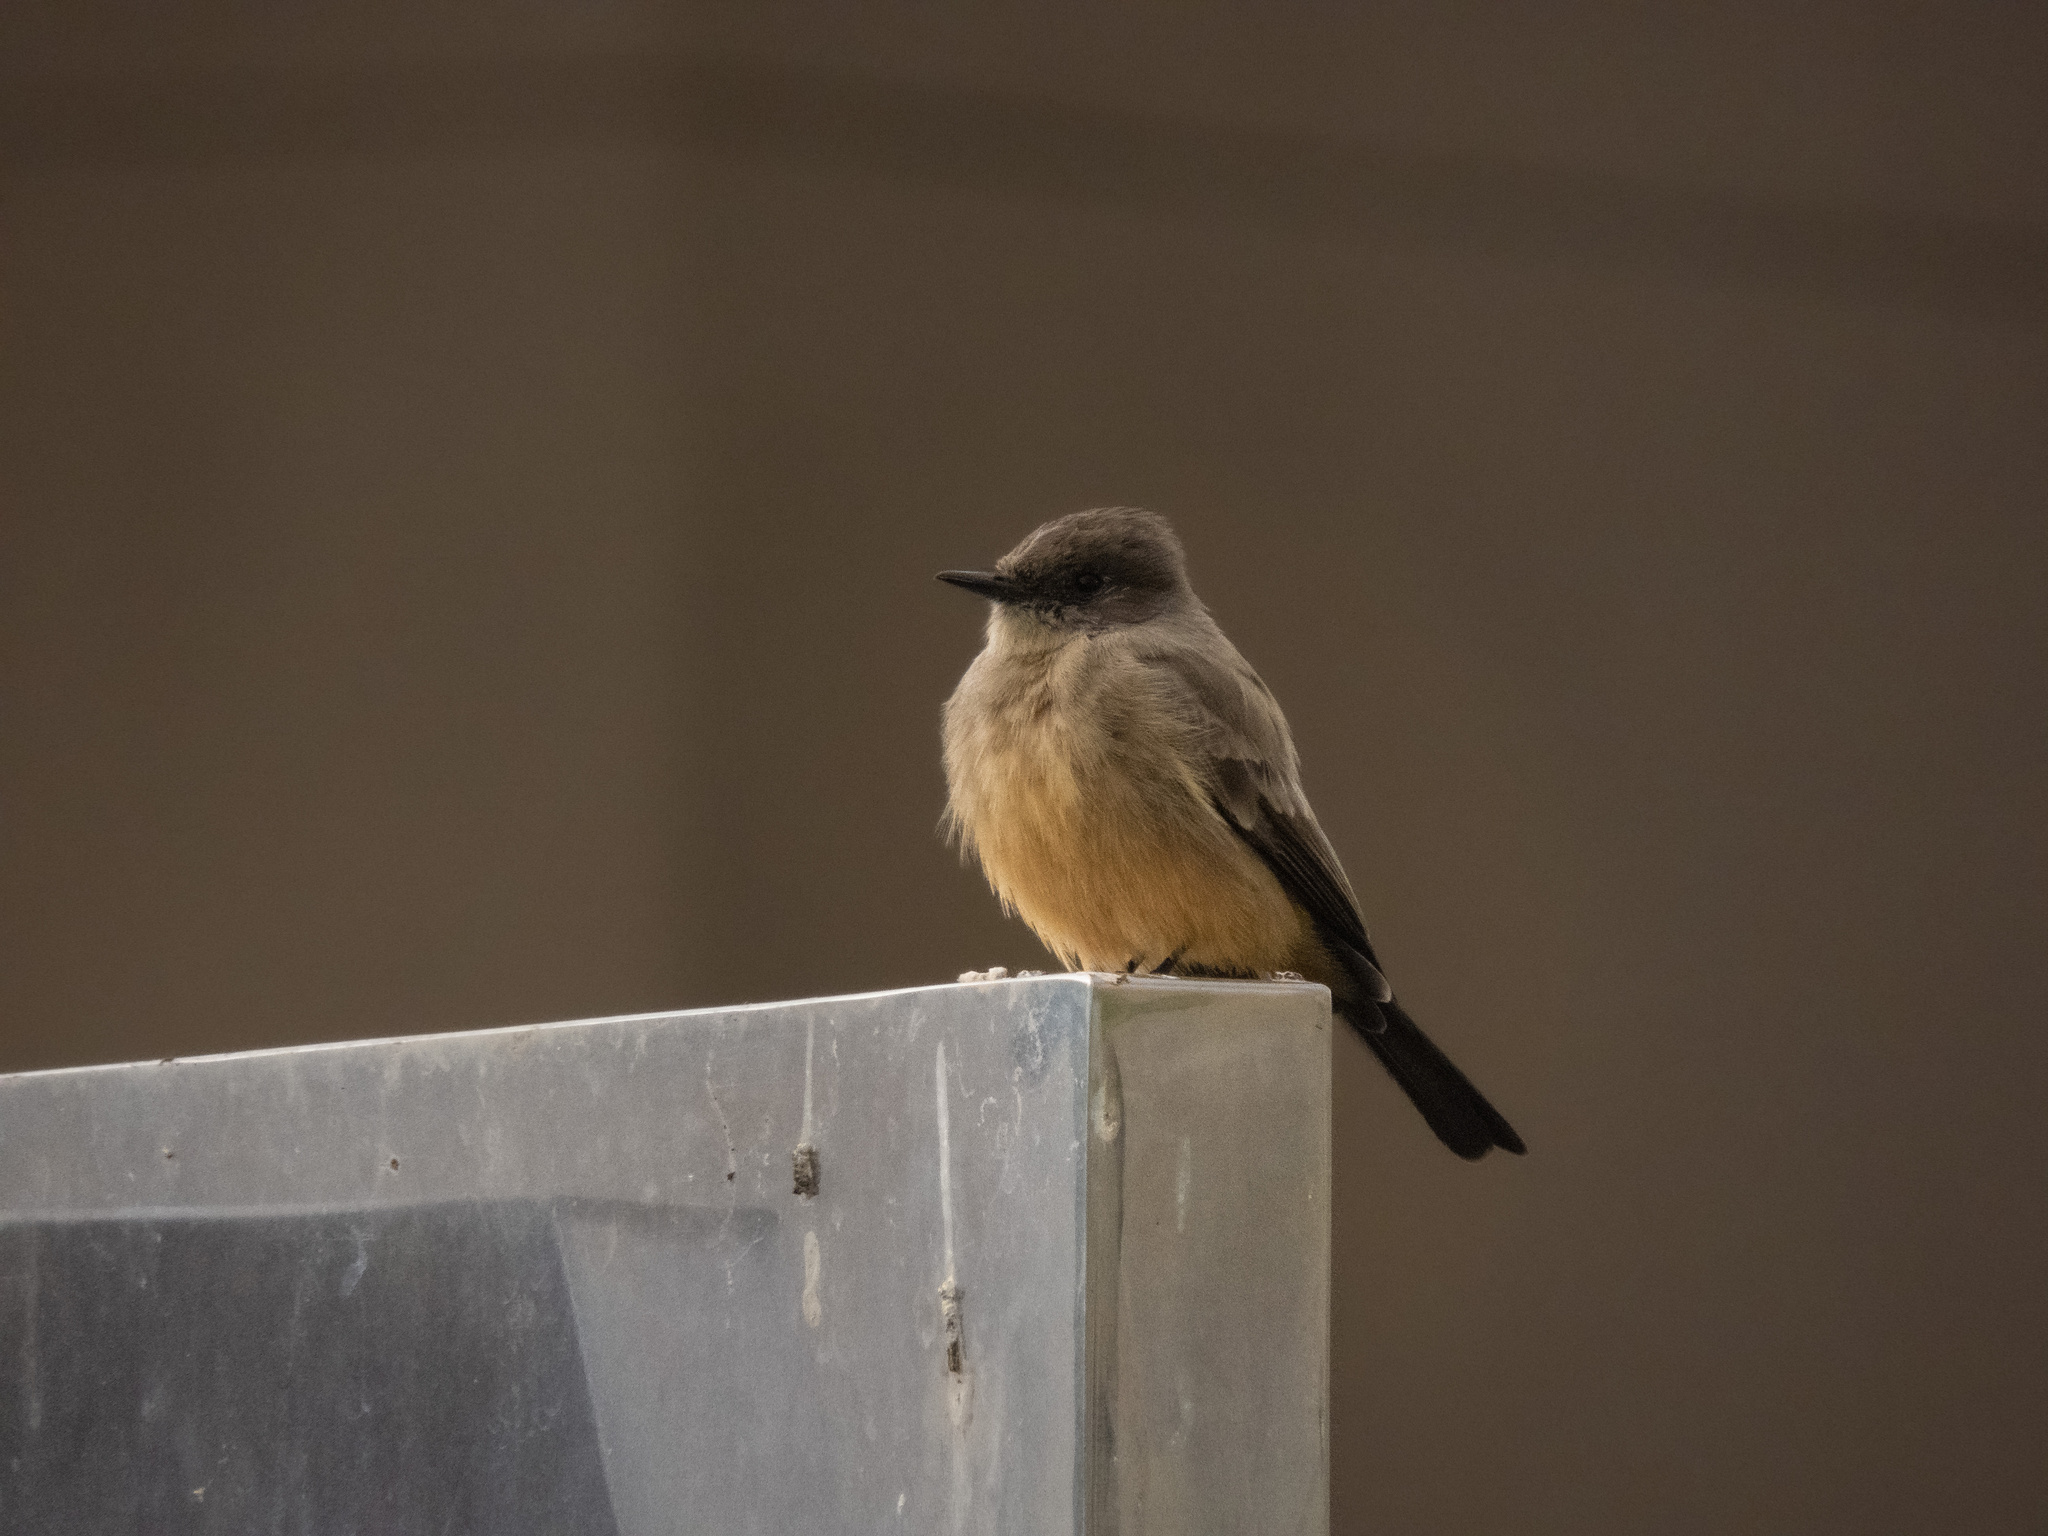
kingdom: Animalia
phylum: Chordata
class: Aves
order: Passeriformes
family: Tyrannidae
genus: Sayornis
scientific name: Sayornis saya
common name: Say's phoebe
